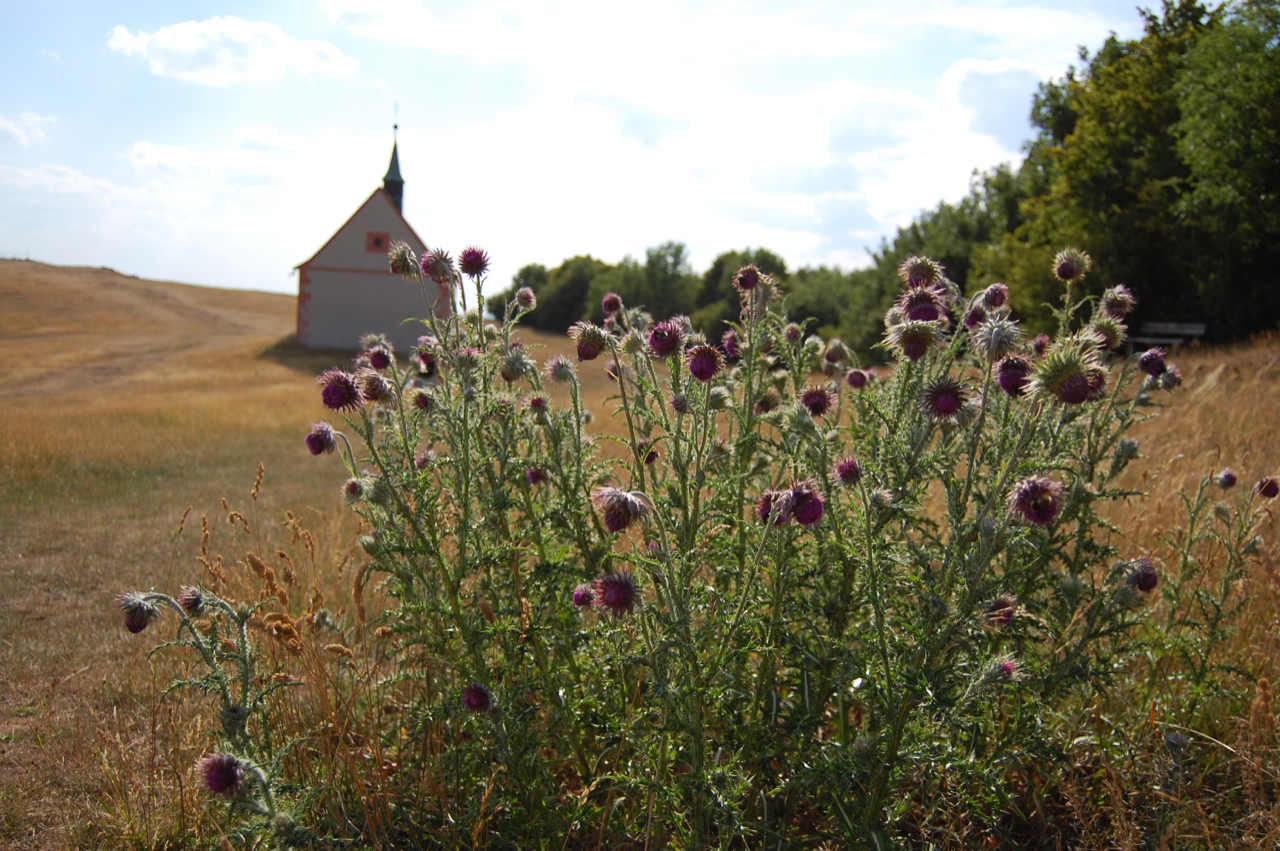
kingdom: Plantae
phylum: Tracheophyta
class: Magnoliopsida
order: Asterales
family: Asteraceae
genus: Carduus
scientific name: Carduus nutans
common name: Musk thistle
